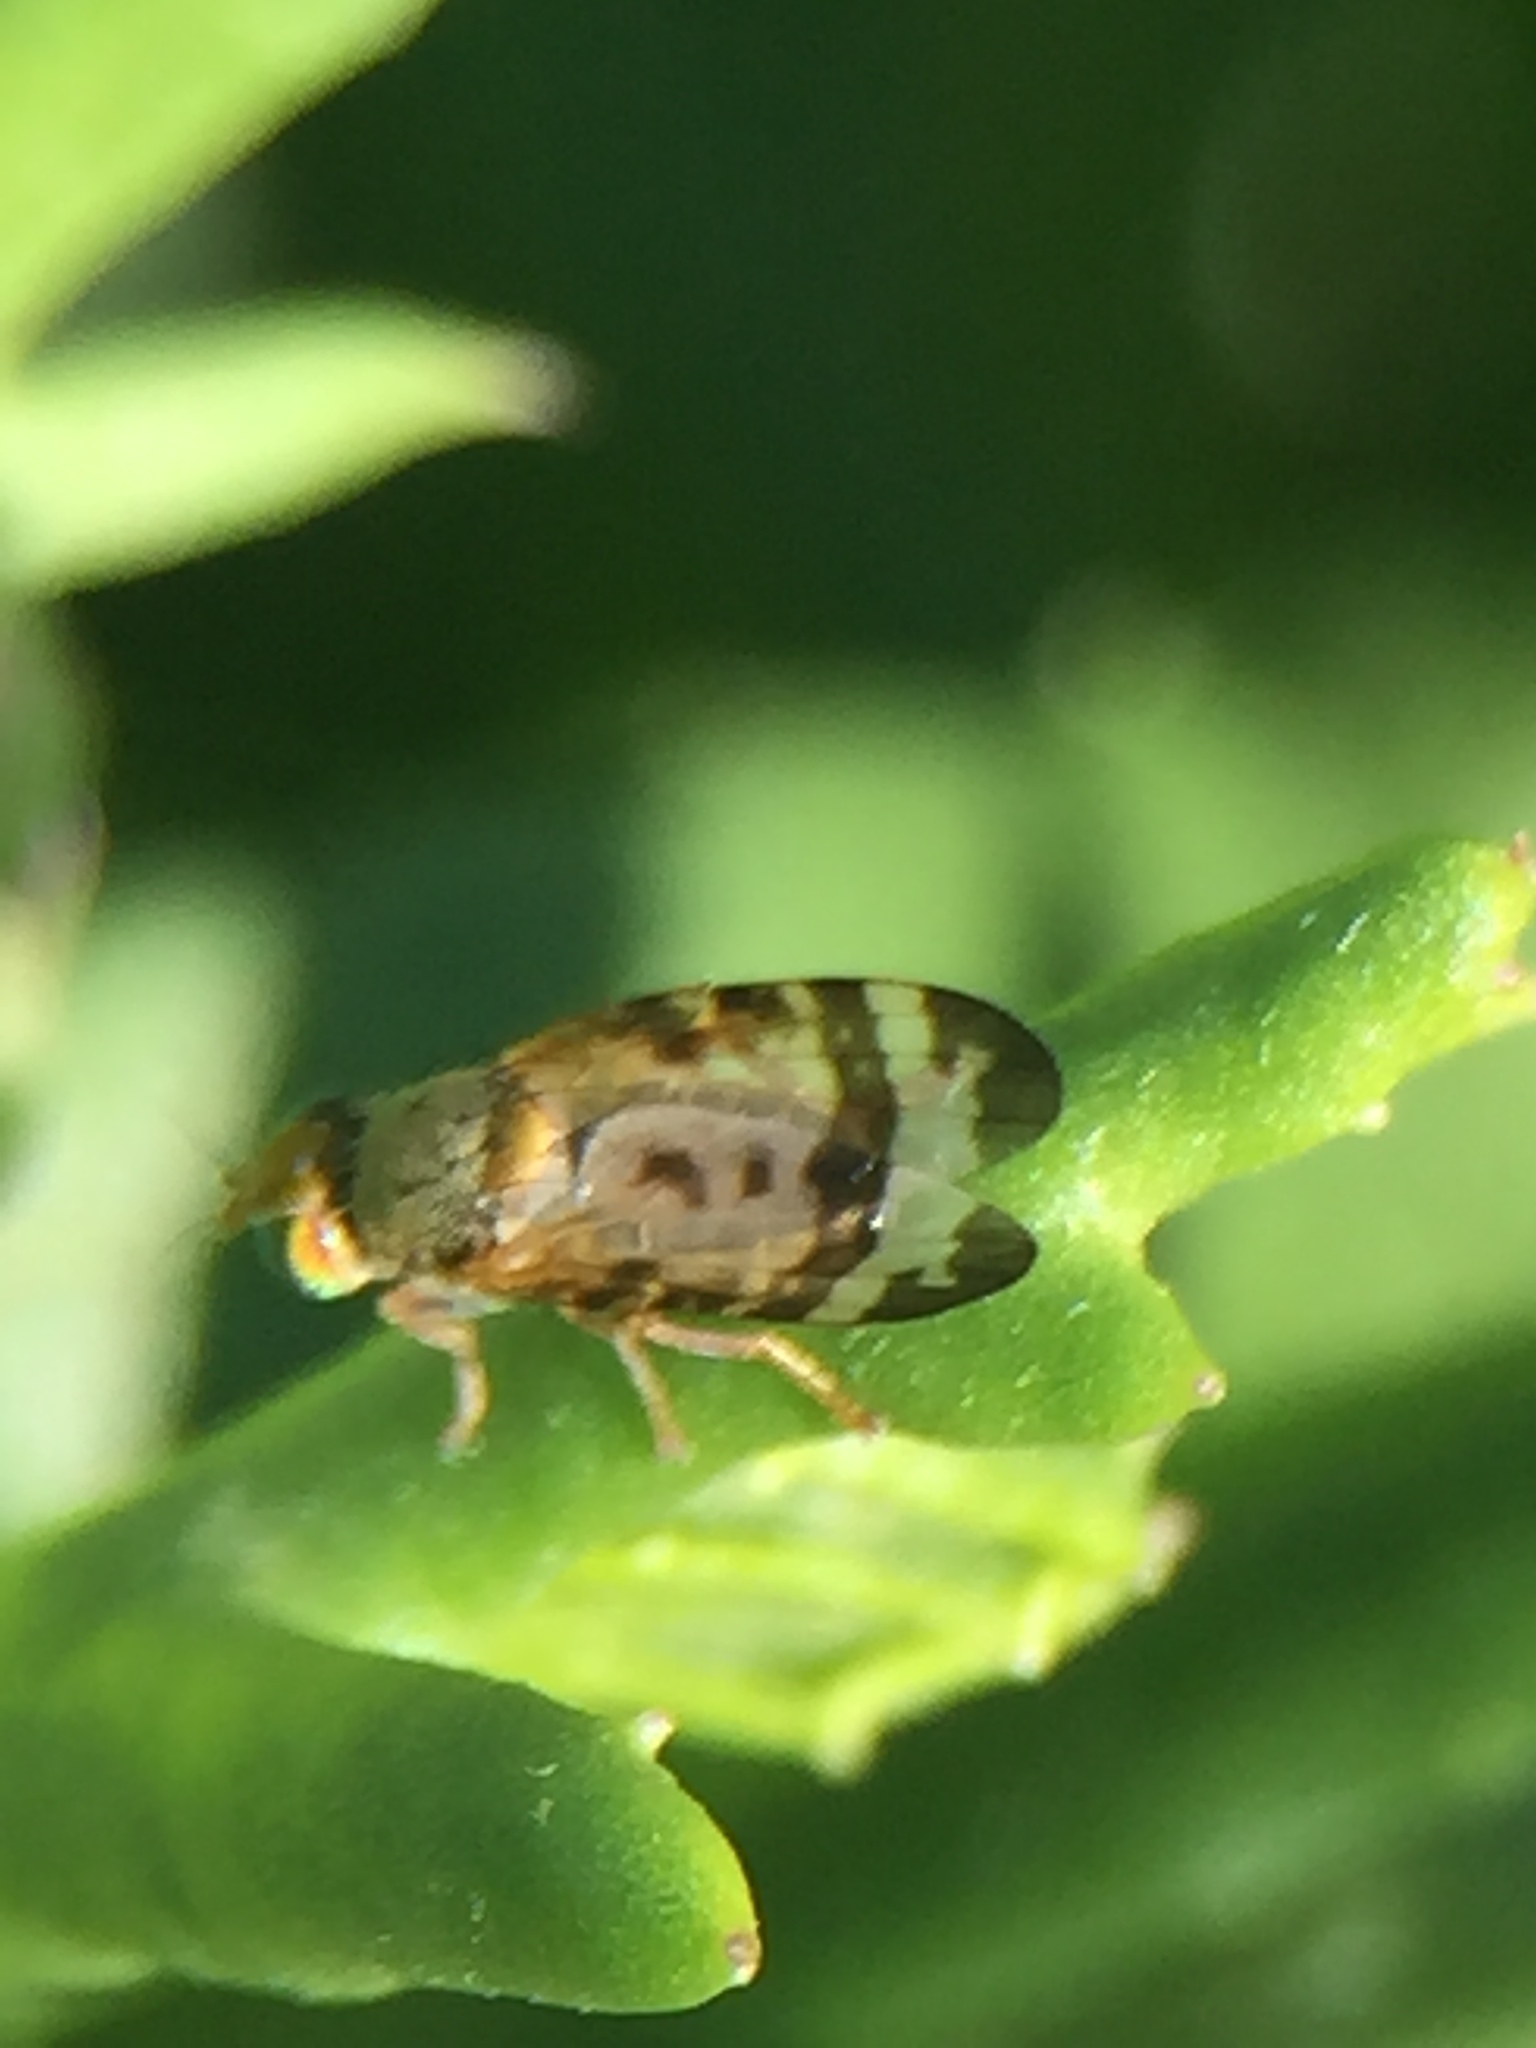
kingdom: Animalia
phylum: Arthropoda
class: Insecta
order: Diptera
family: Tephritidae
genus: Sphenella
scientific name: Sphenella ruficeps
